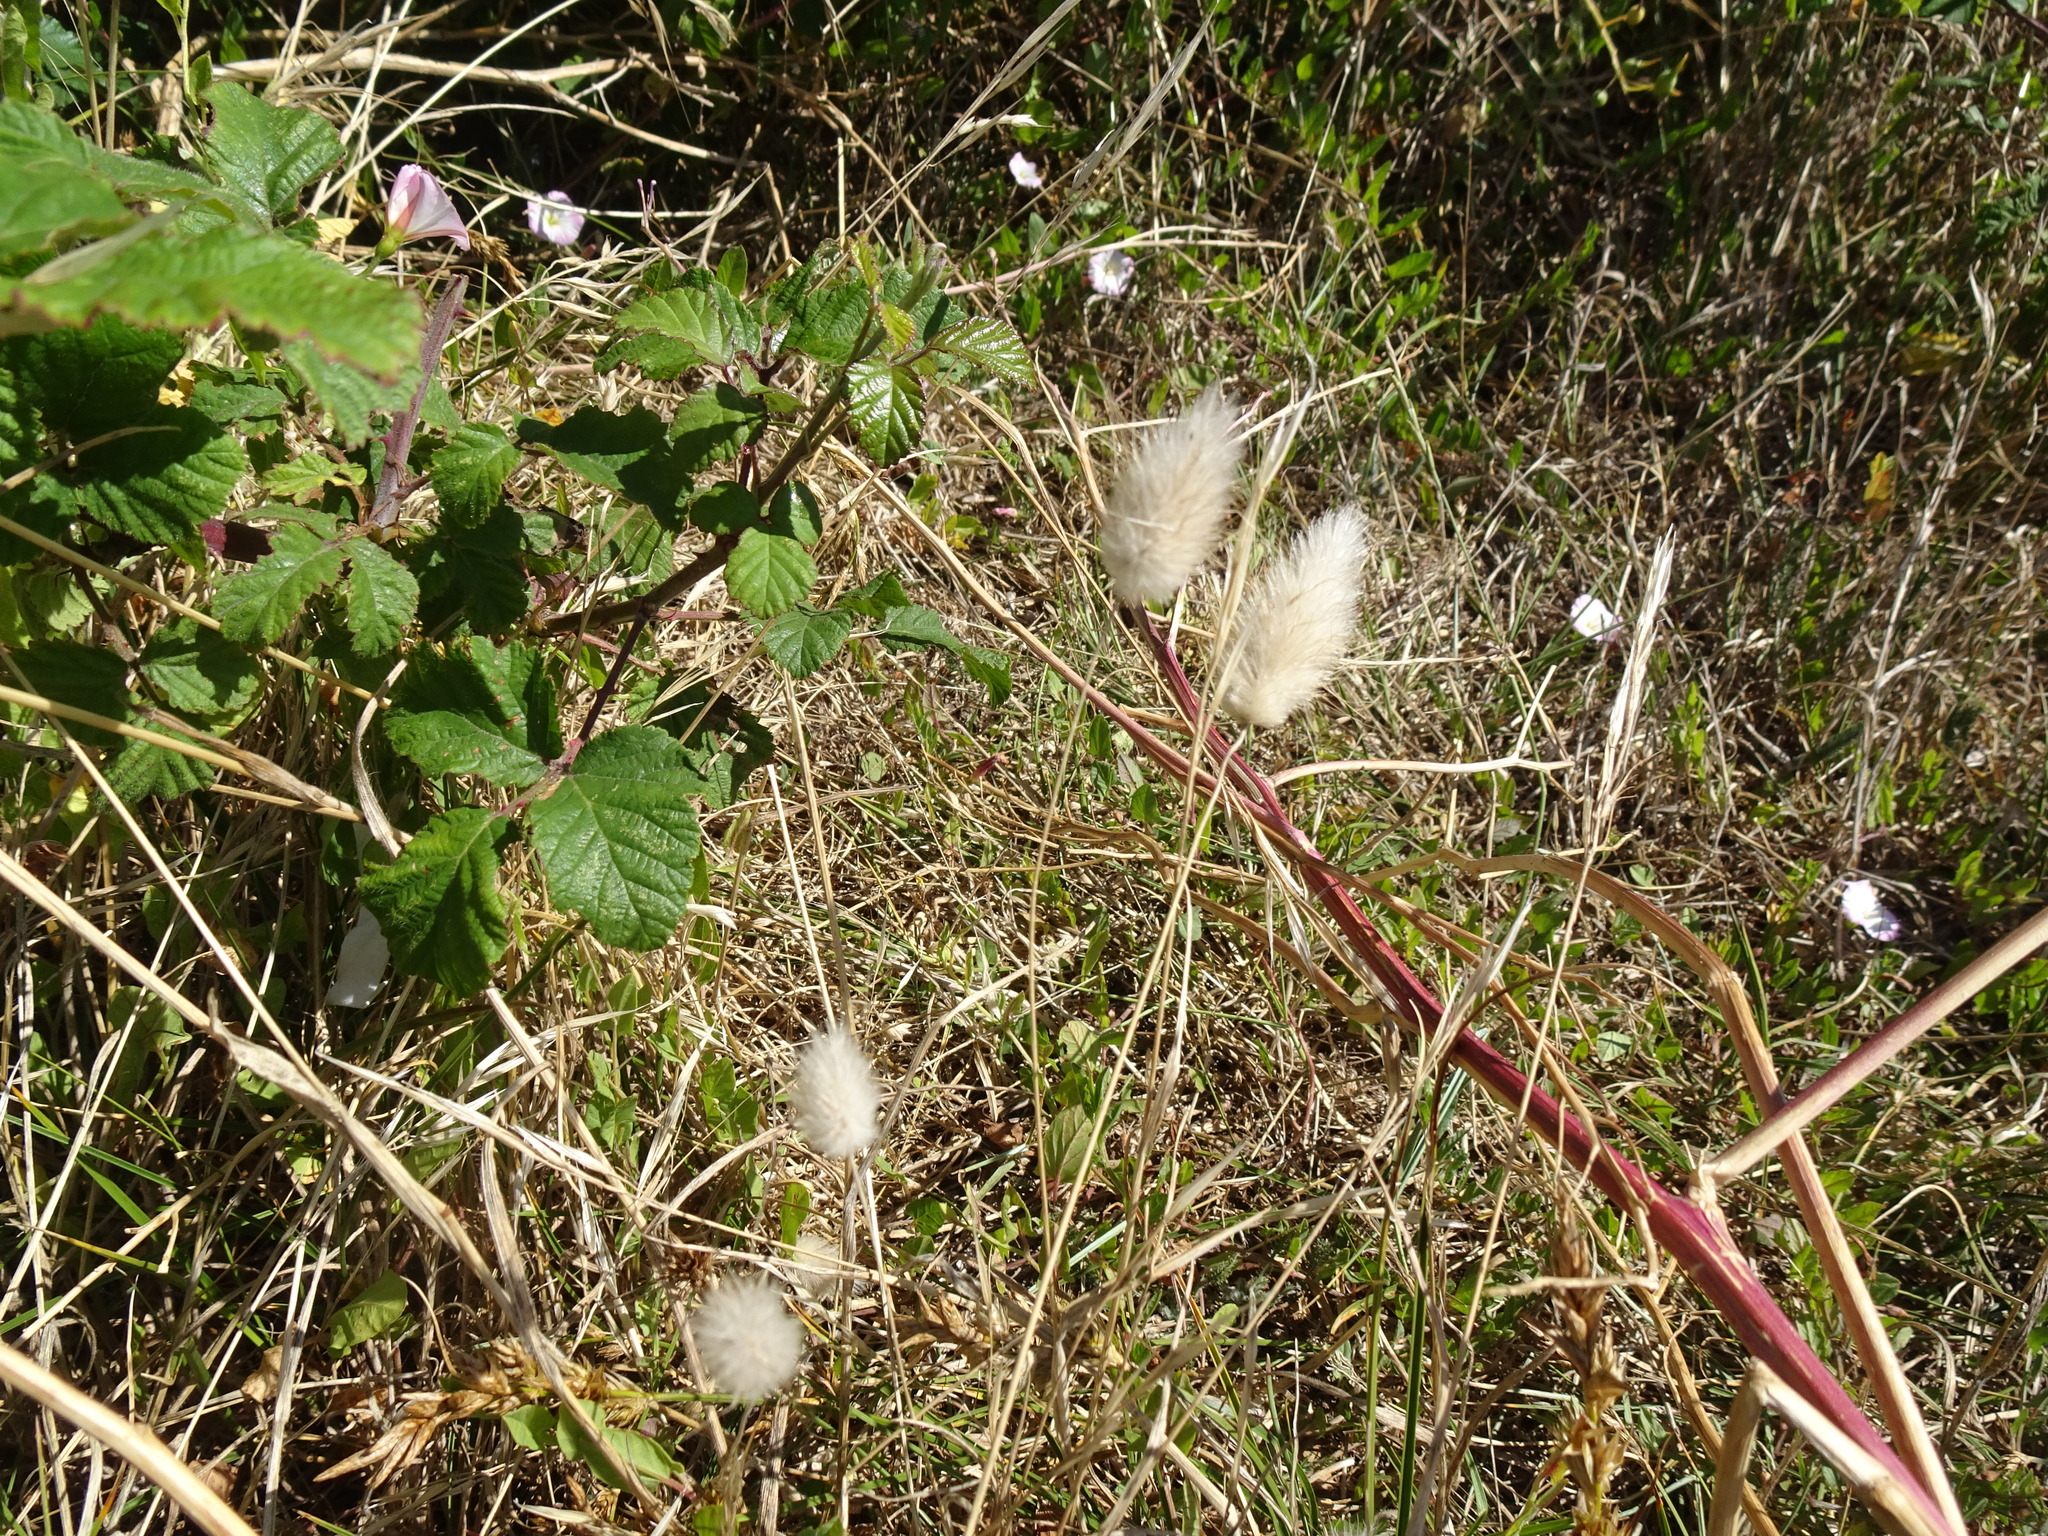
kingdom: Plantae
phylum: Tracheophyta
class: Liliopsida
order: Poales
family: Poaceae
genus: Lagurus
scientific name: Lagurus ovatus
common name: Hare's-tail
